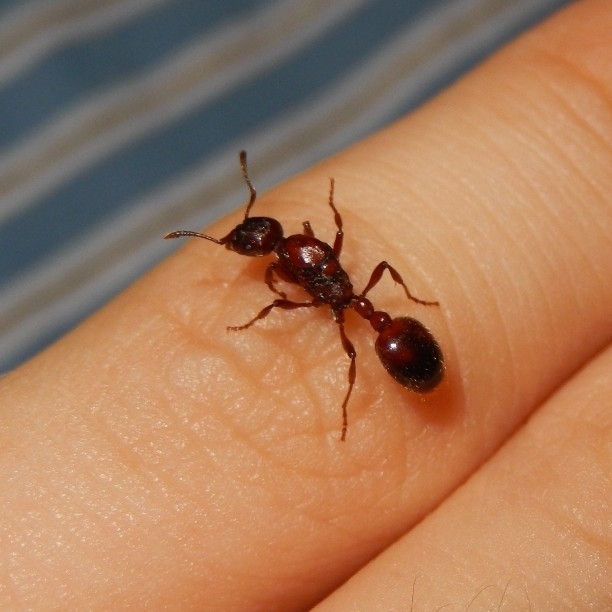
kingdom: Animalia
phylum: Arthropoda
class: Insecta
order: Hymenoptera
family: Formicidae
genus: Manica
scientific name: Manica rubida
